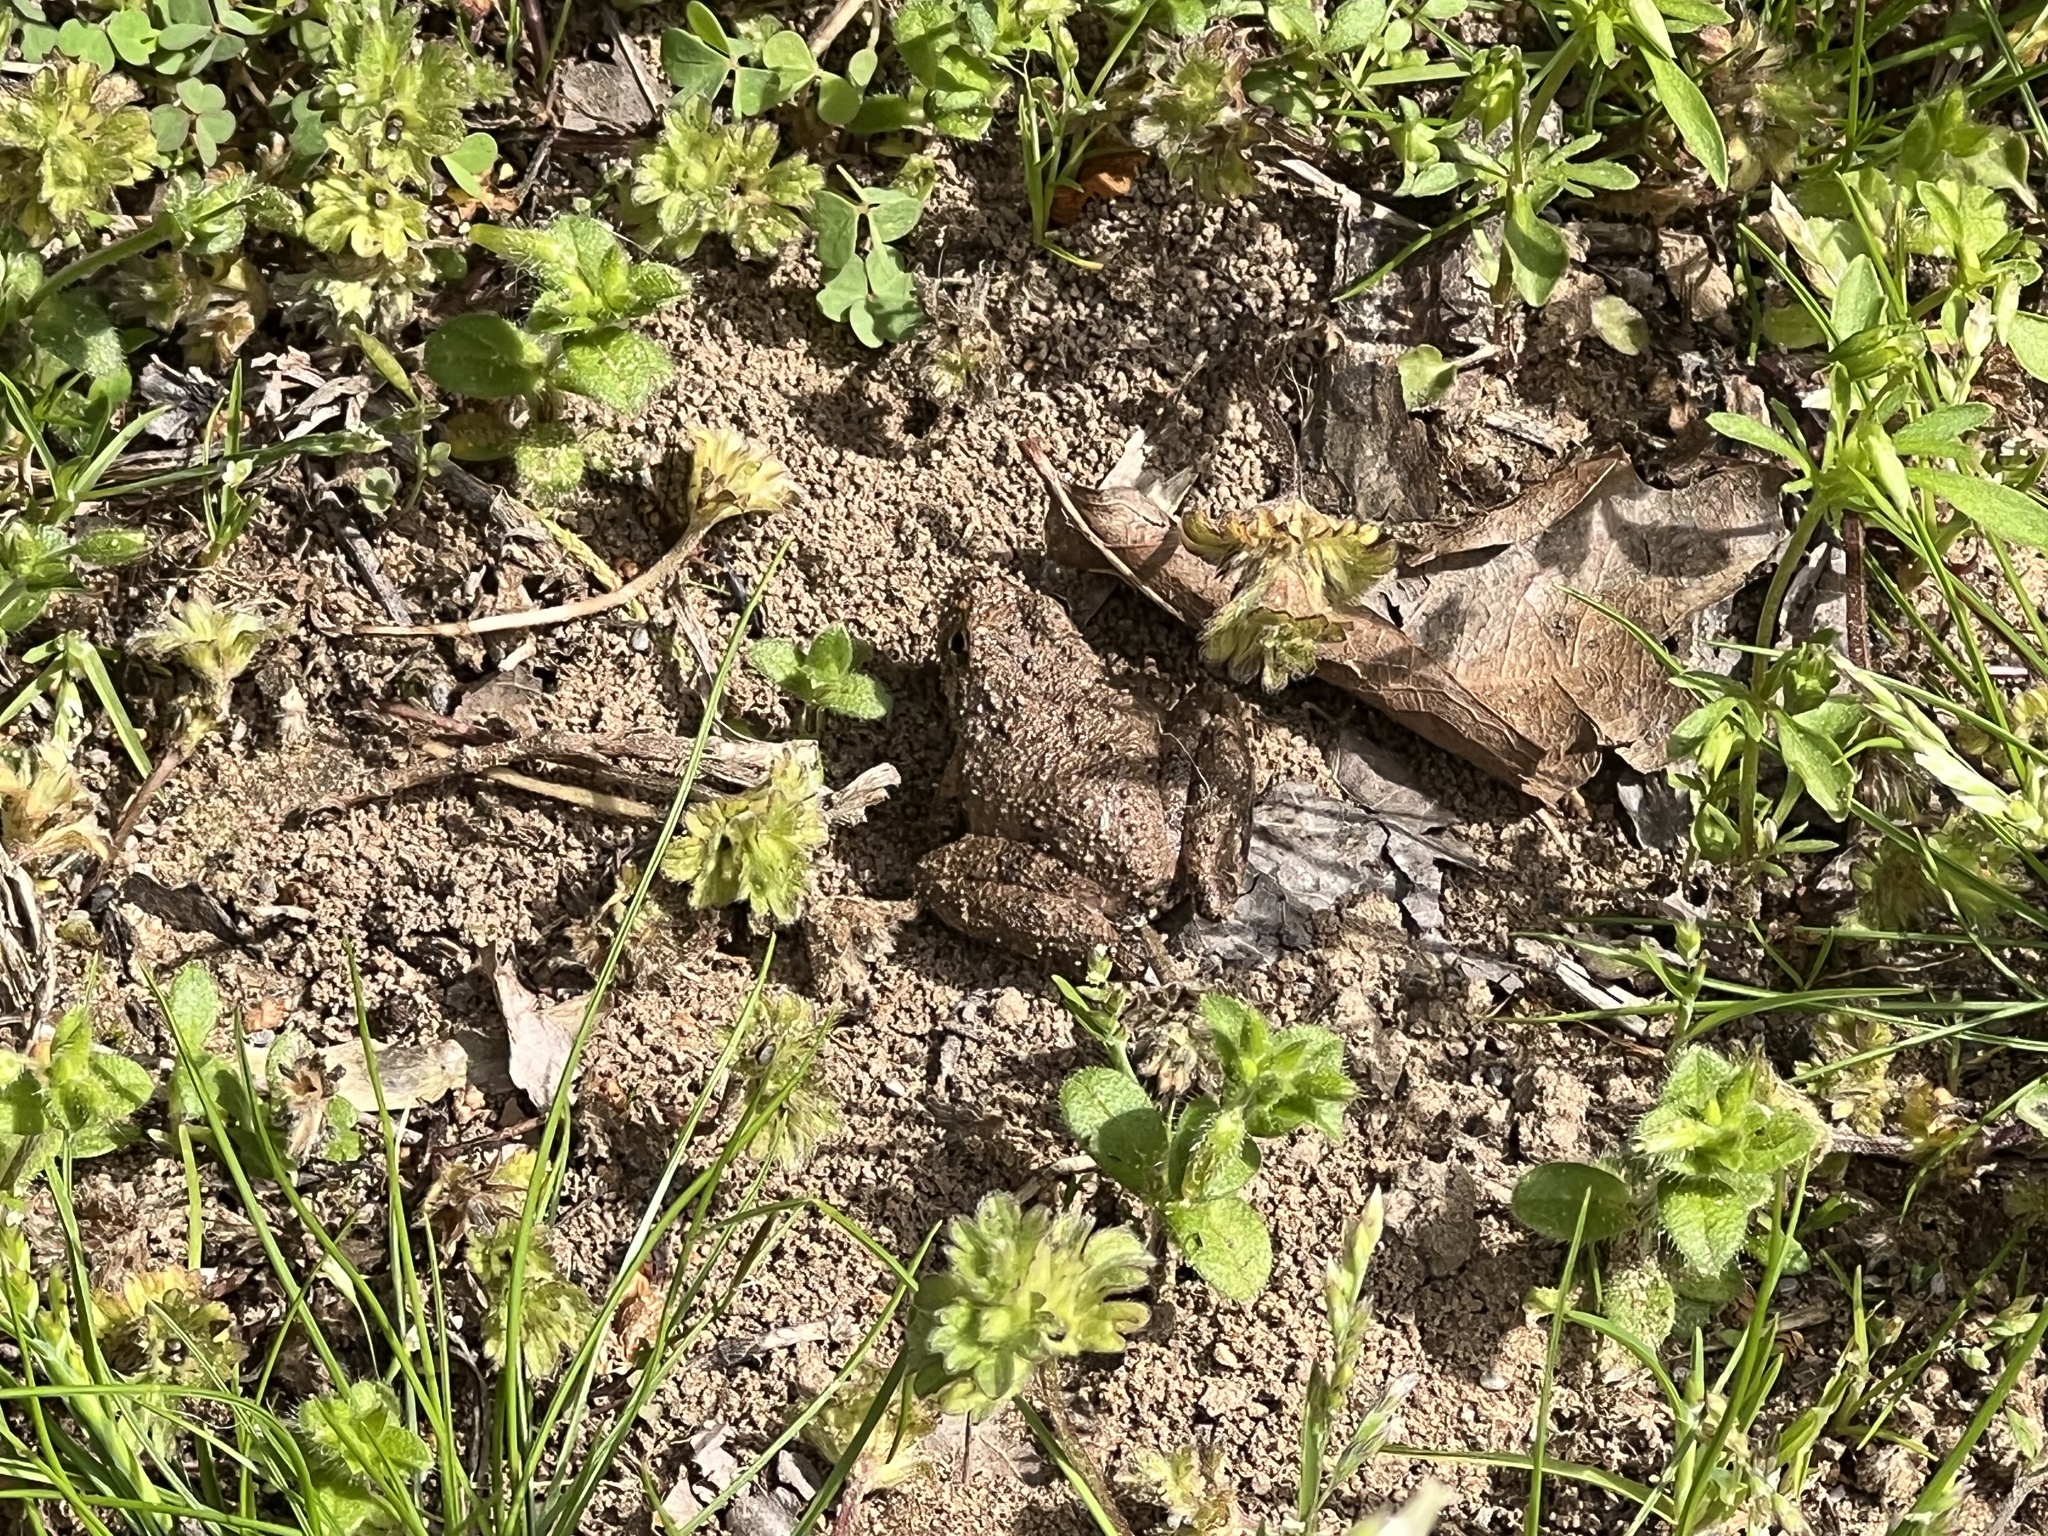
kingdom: Animalia
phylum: Chordata
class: Amphibia
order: Anura
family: Hylidae
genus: Acris
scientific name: Acris blanchardi
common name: Blanchard's cricket frog
